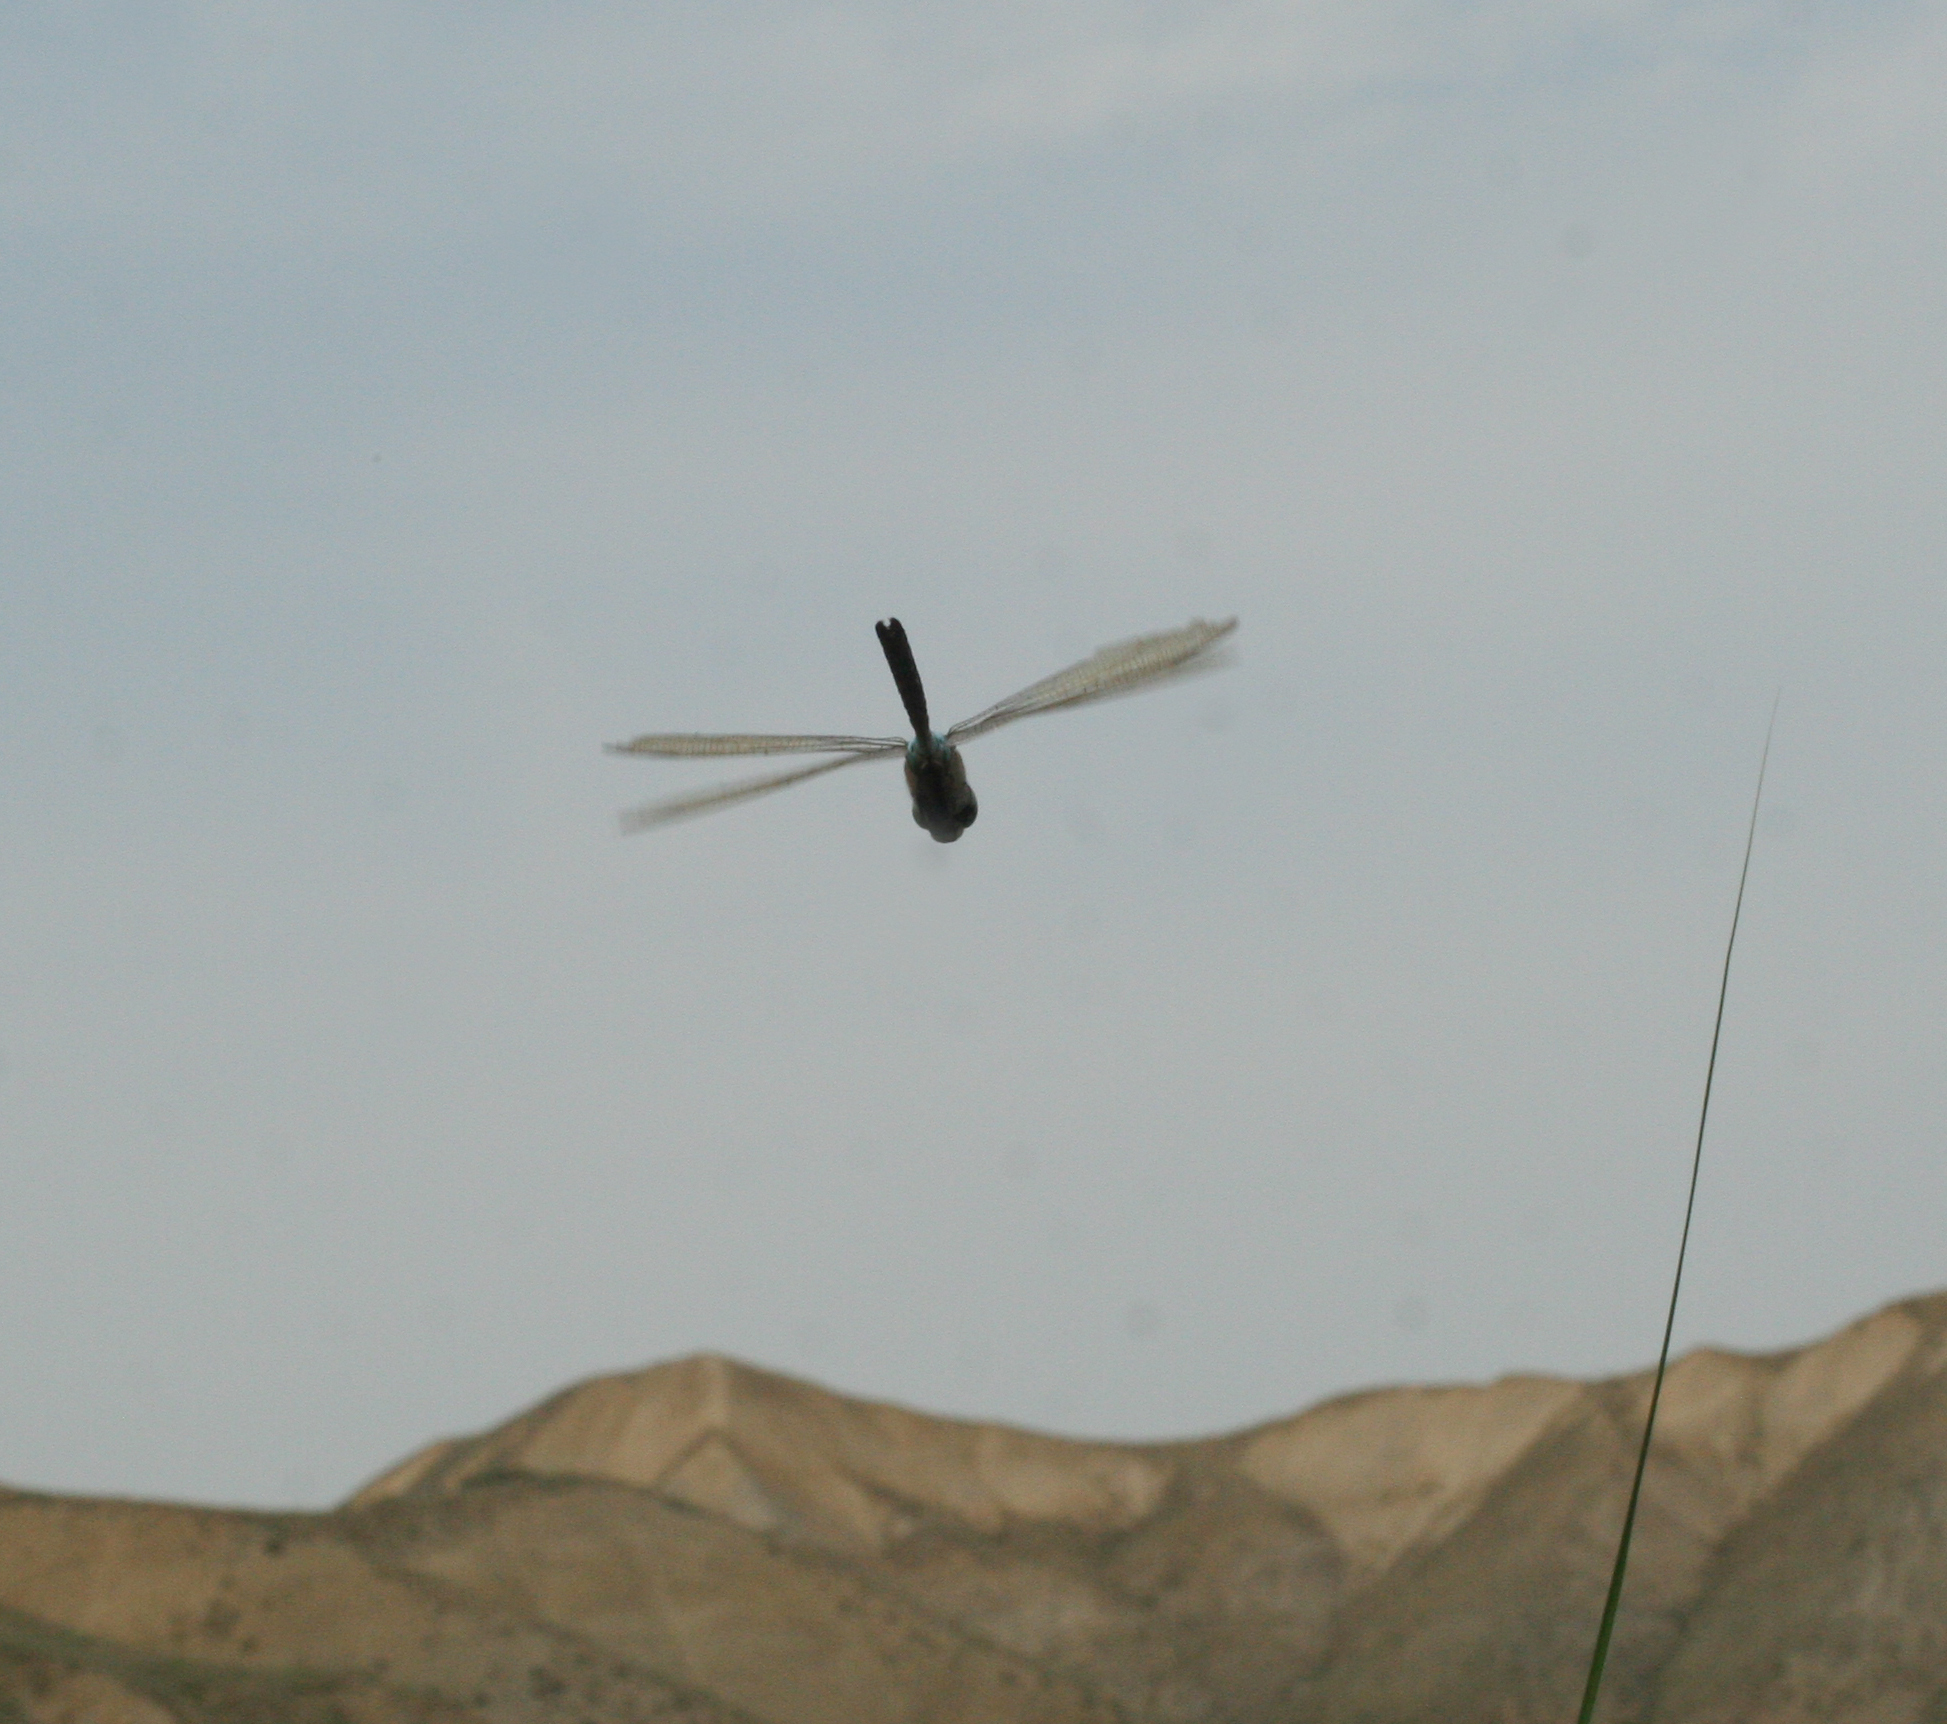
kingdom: Animalia
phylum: Arthropoda
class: Insecta
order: Odonata
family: Aeshnidae
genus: Anax
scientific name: Anax parthenope
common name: Lesser emperor
